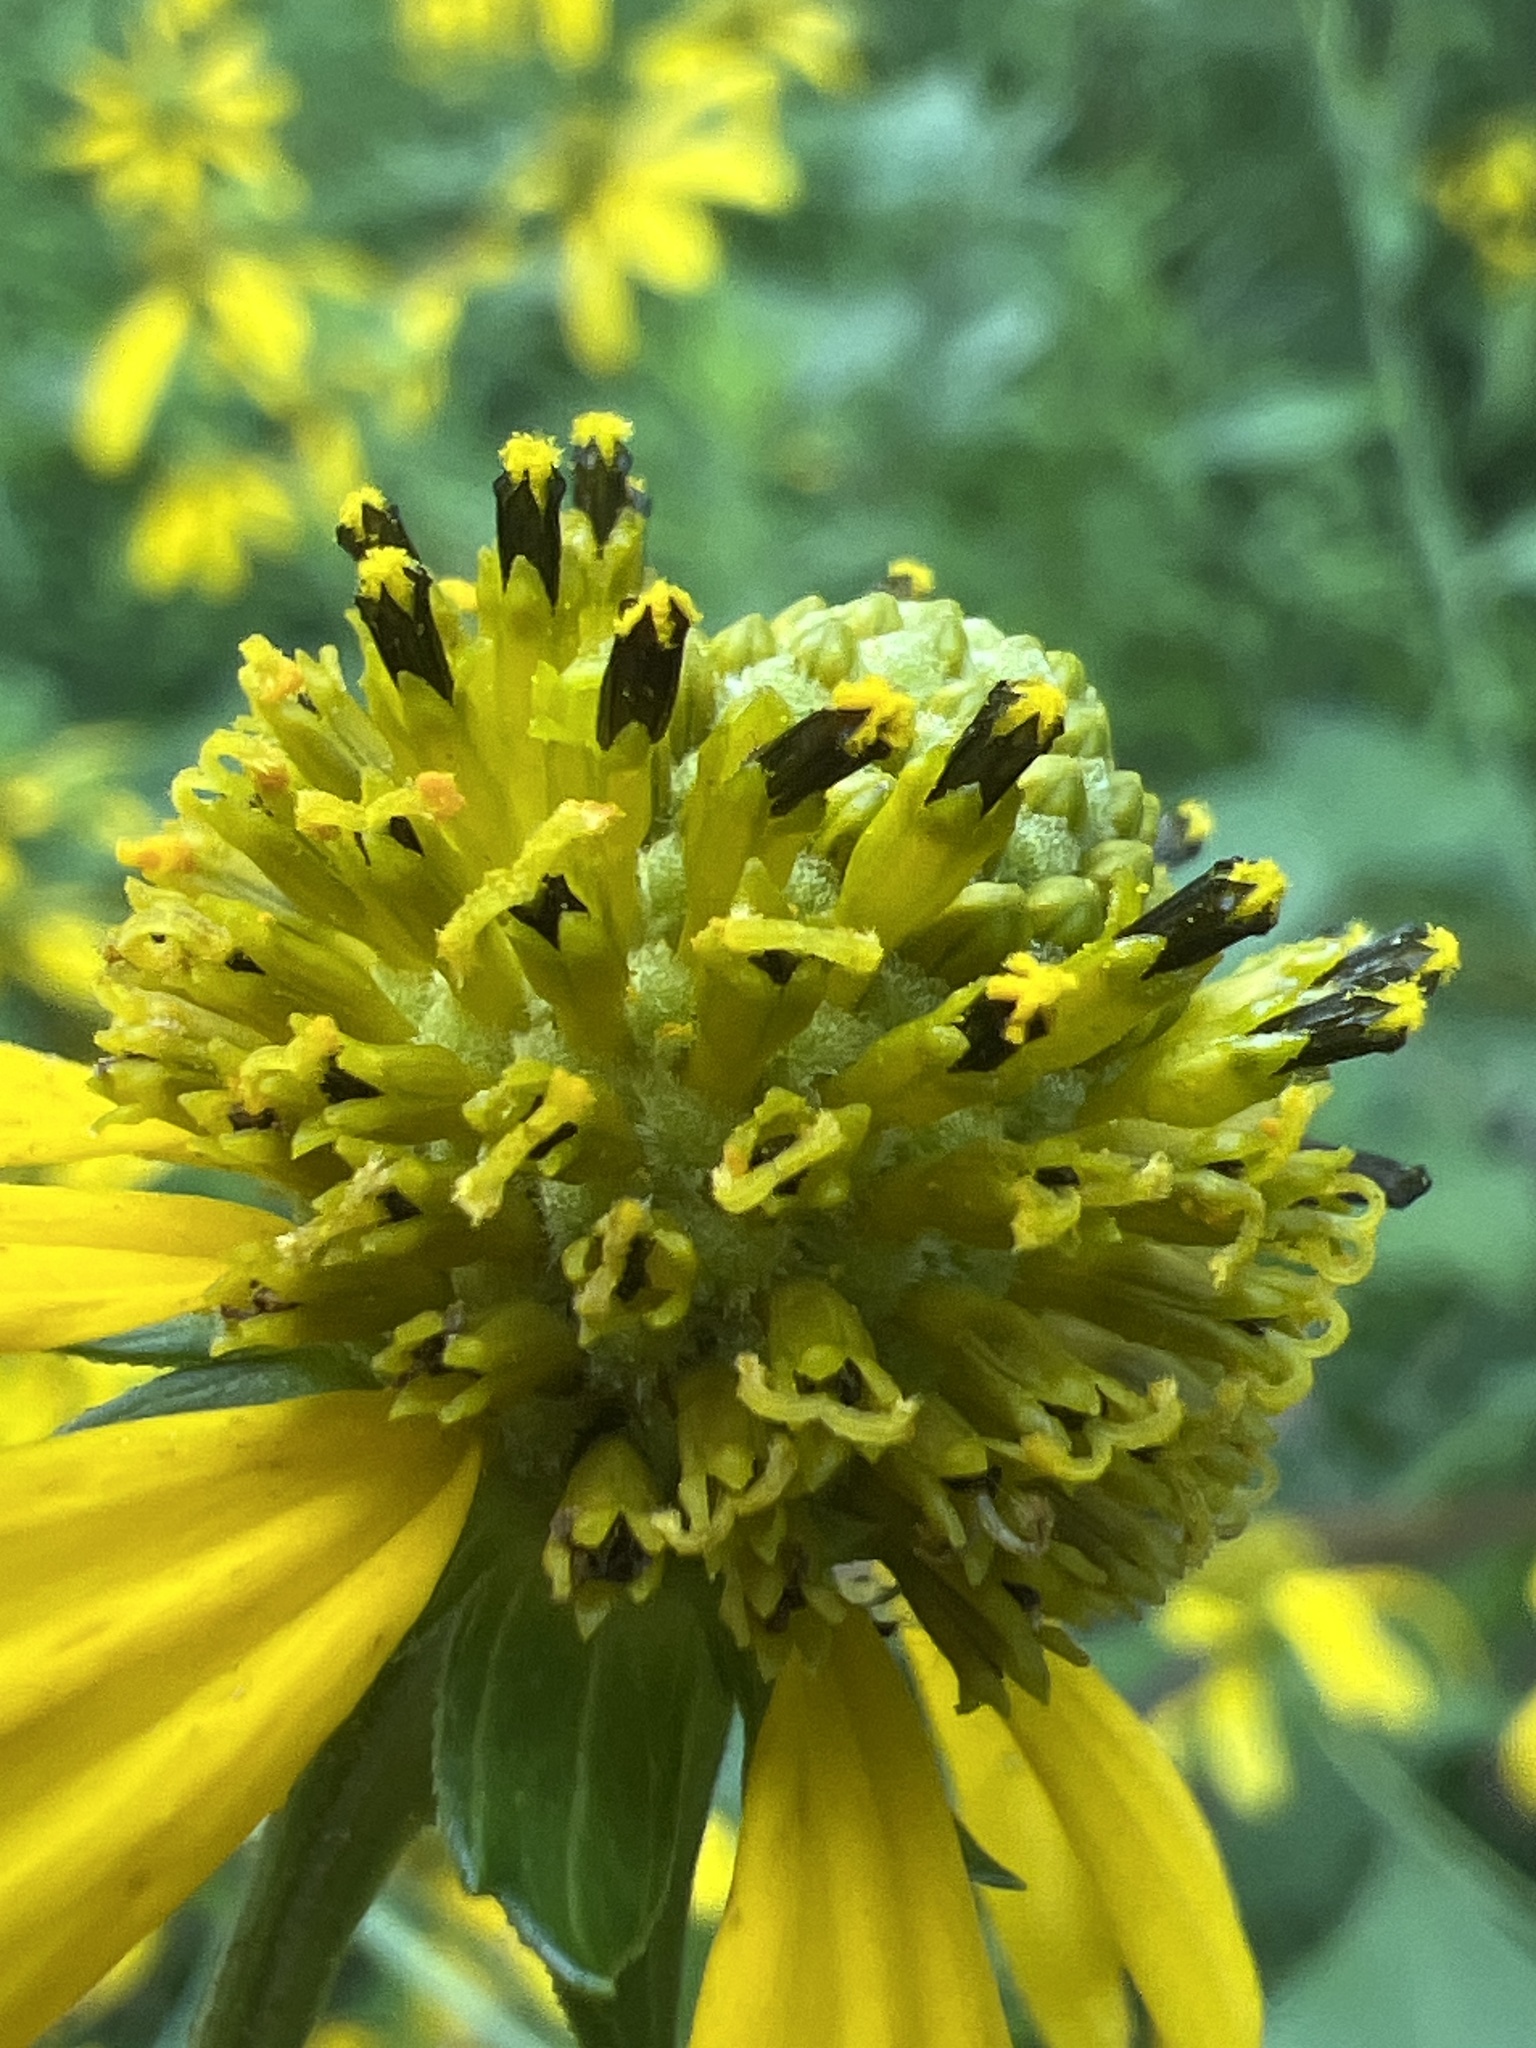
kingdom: Plantae
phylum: Tracheophyta
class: Magnoliopsida
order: Asterales
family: Asteraceae
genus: Rudbeckia
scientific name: Rudbeckia laciniata
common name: Coneflower
